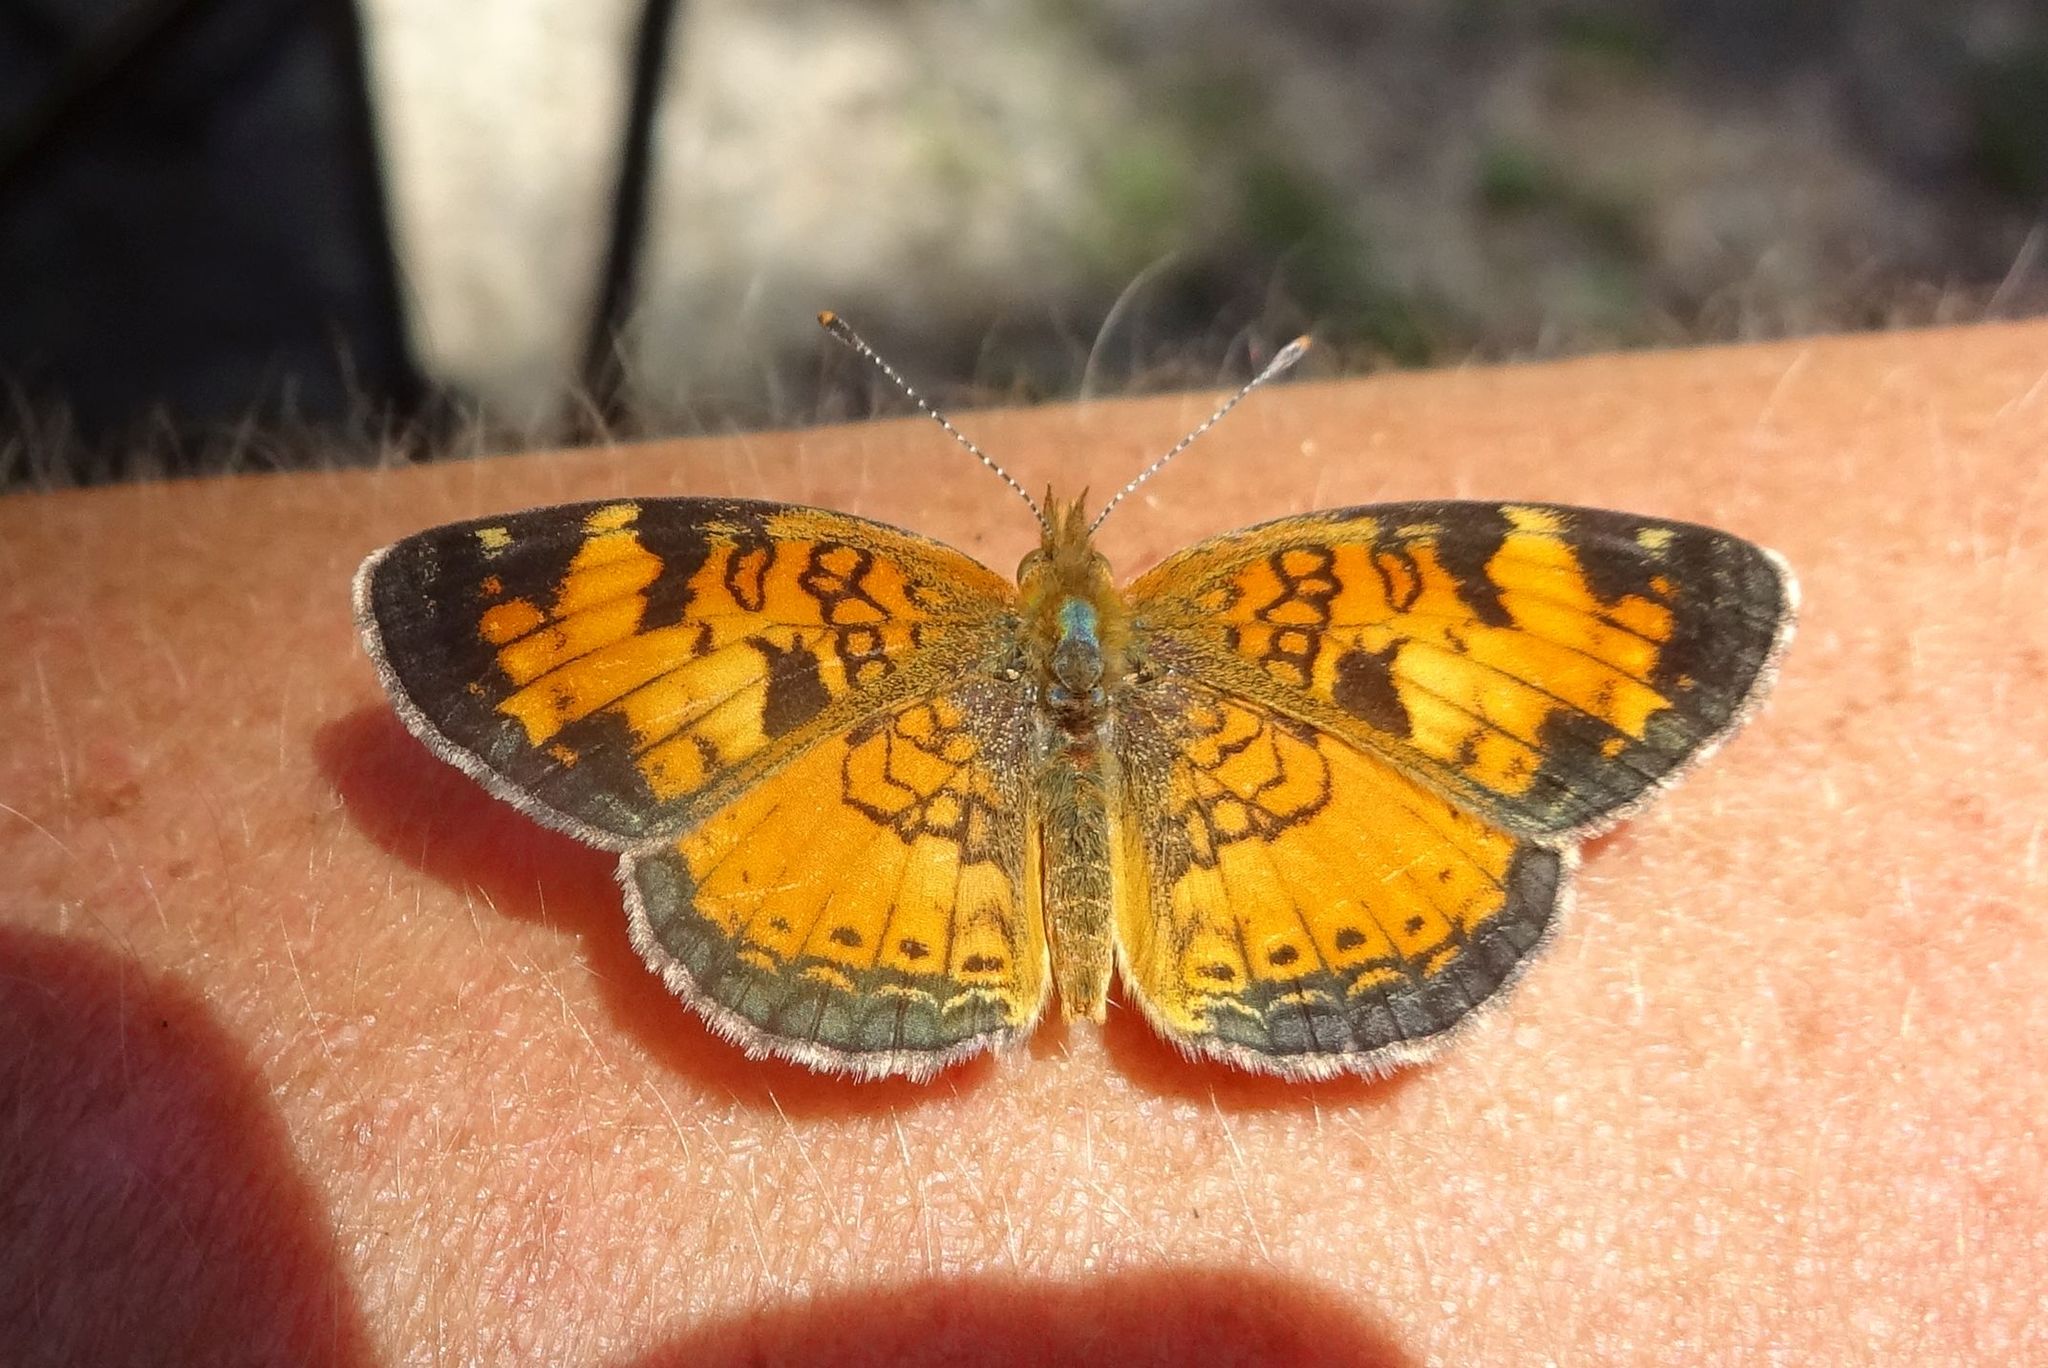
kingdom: Animalia
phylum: Arthropoda
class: Insecta
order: Lepidoptera
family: Nymphalidae
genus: Phyciodes
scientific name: Phyciodes tharos
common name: Pearl crescent
